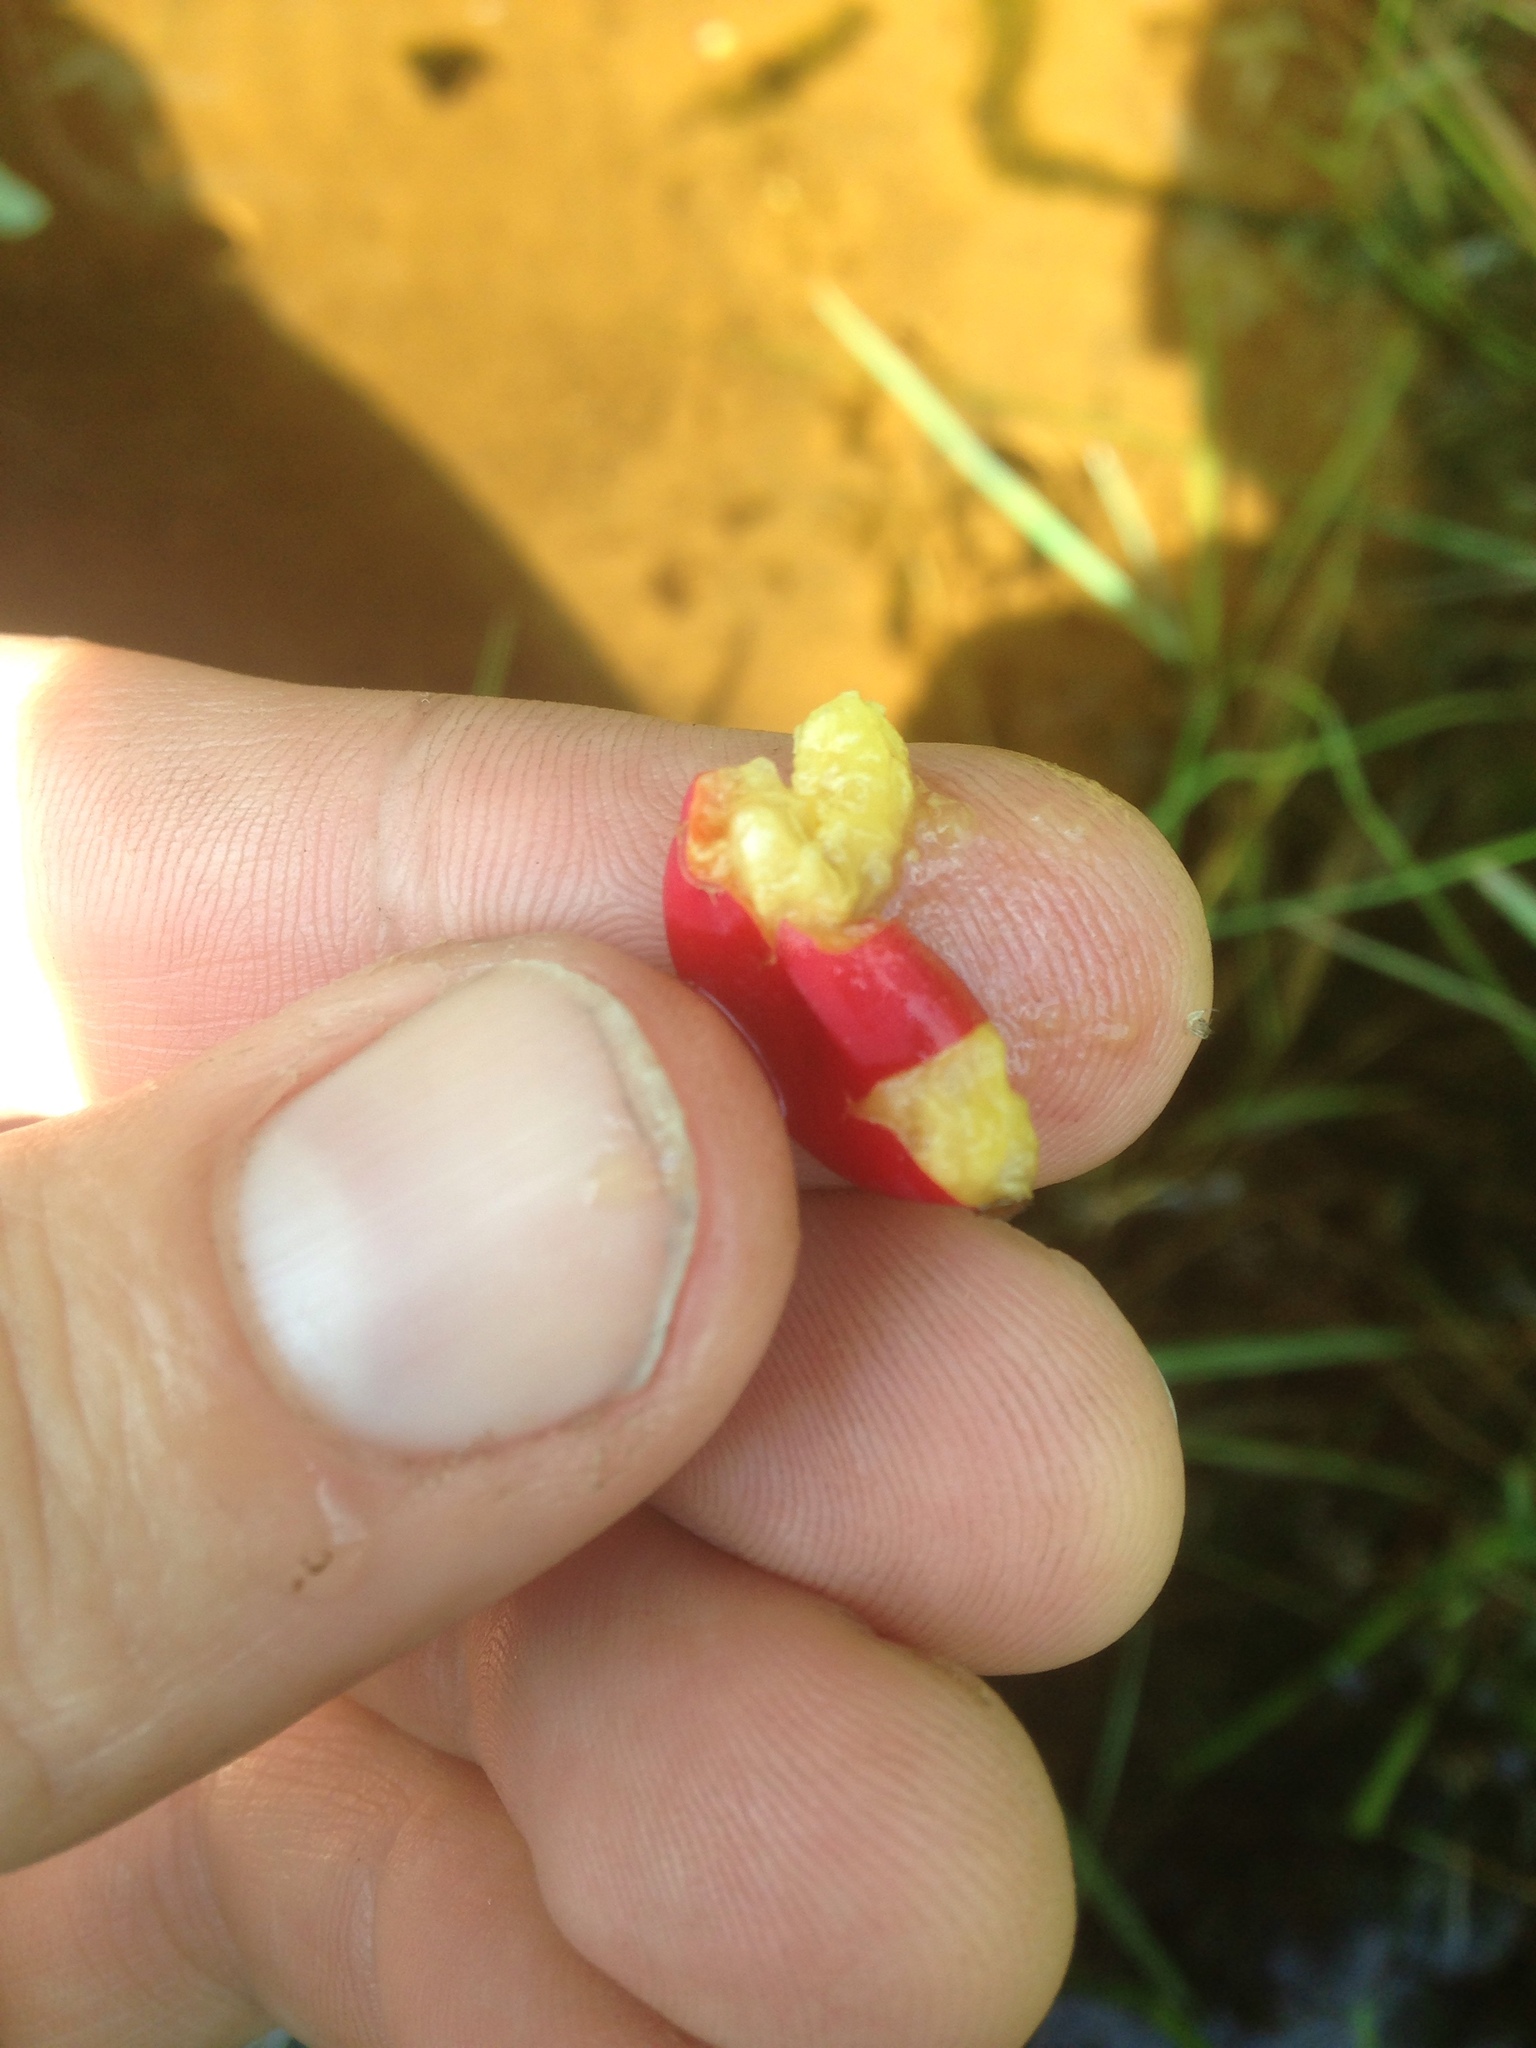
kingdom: Plantae
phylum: Tracheophyta
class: Magnoliopsida
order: Aquifoliales
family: Aquifoliaceae
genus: Ilex
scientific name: Ilex mucronata
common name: Catberry
